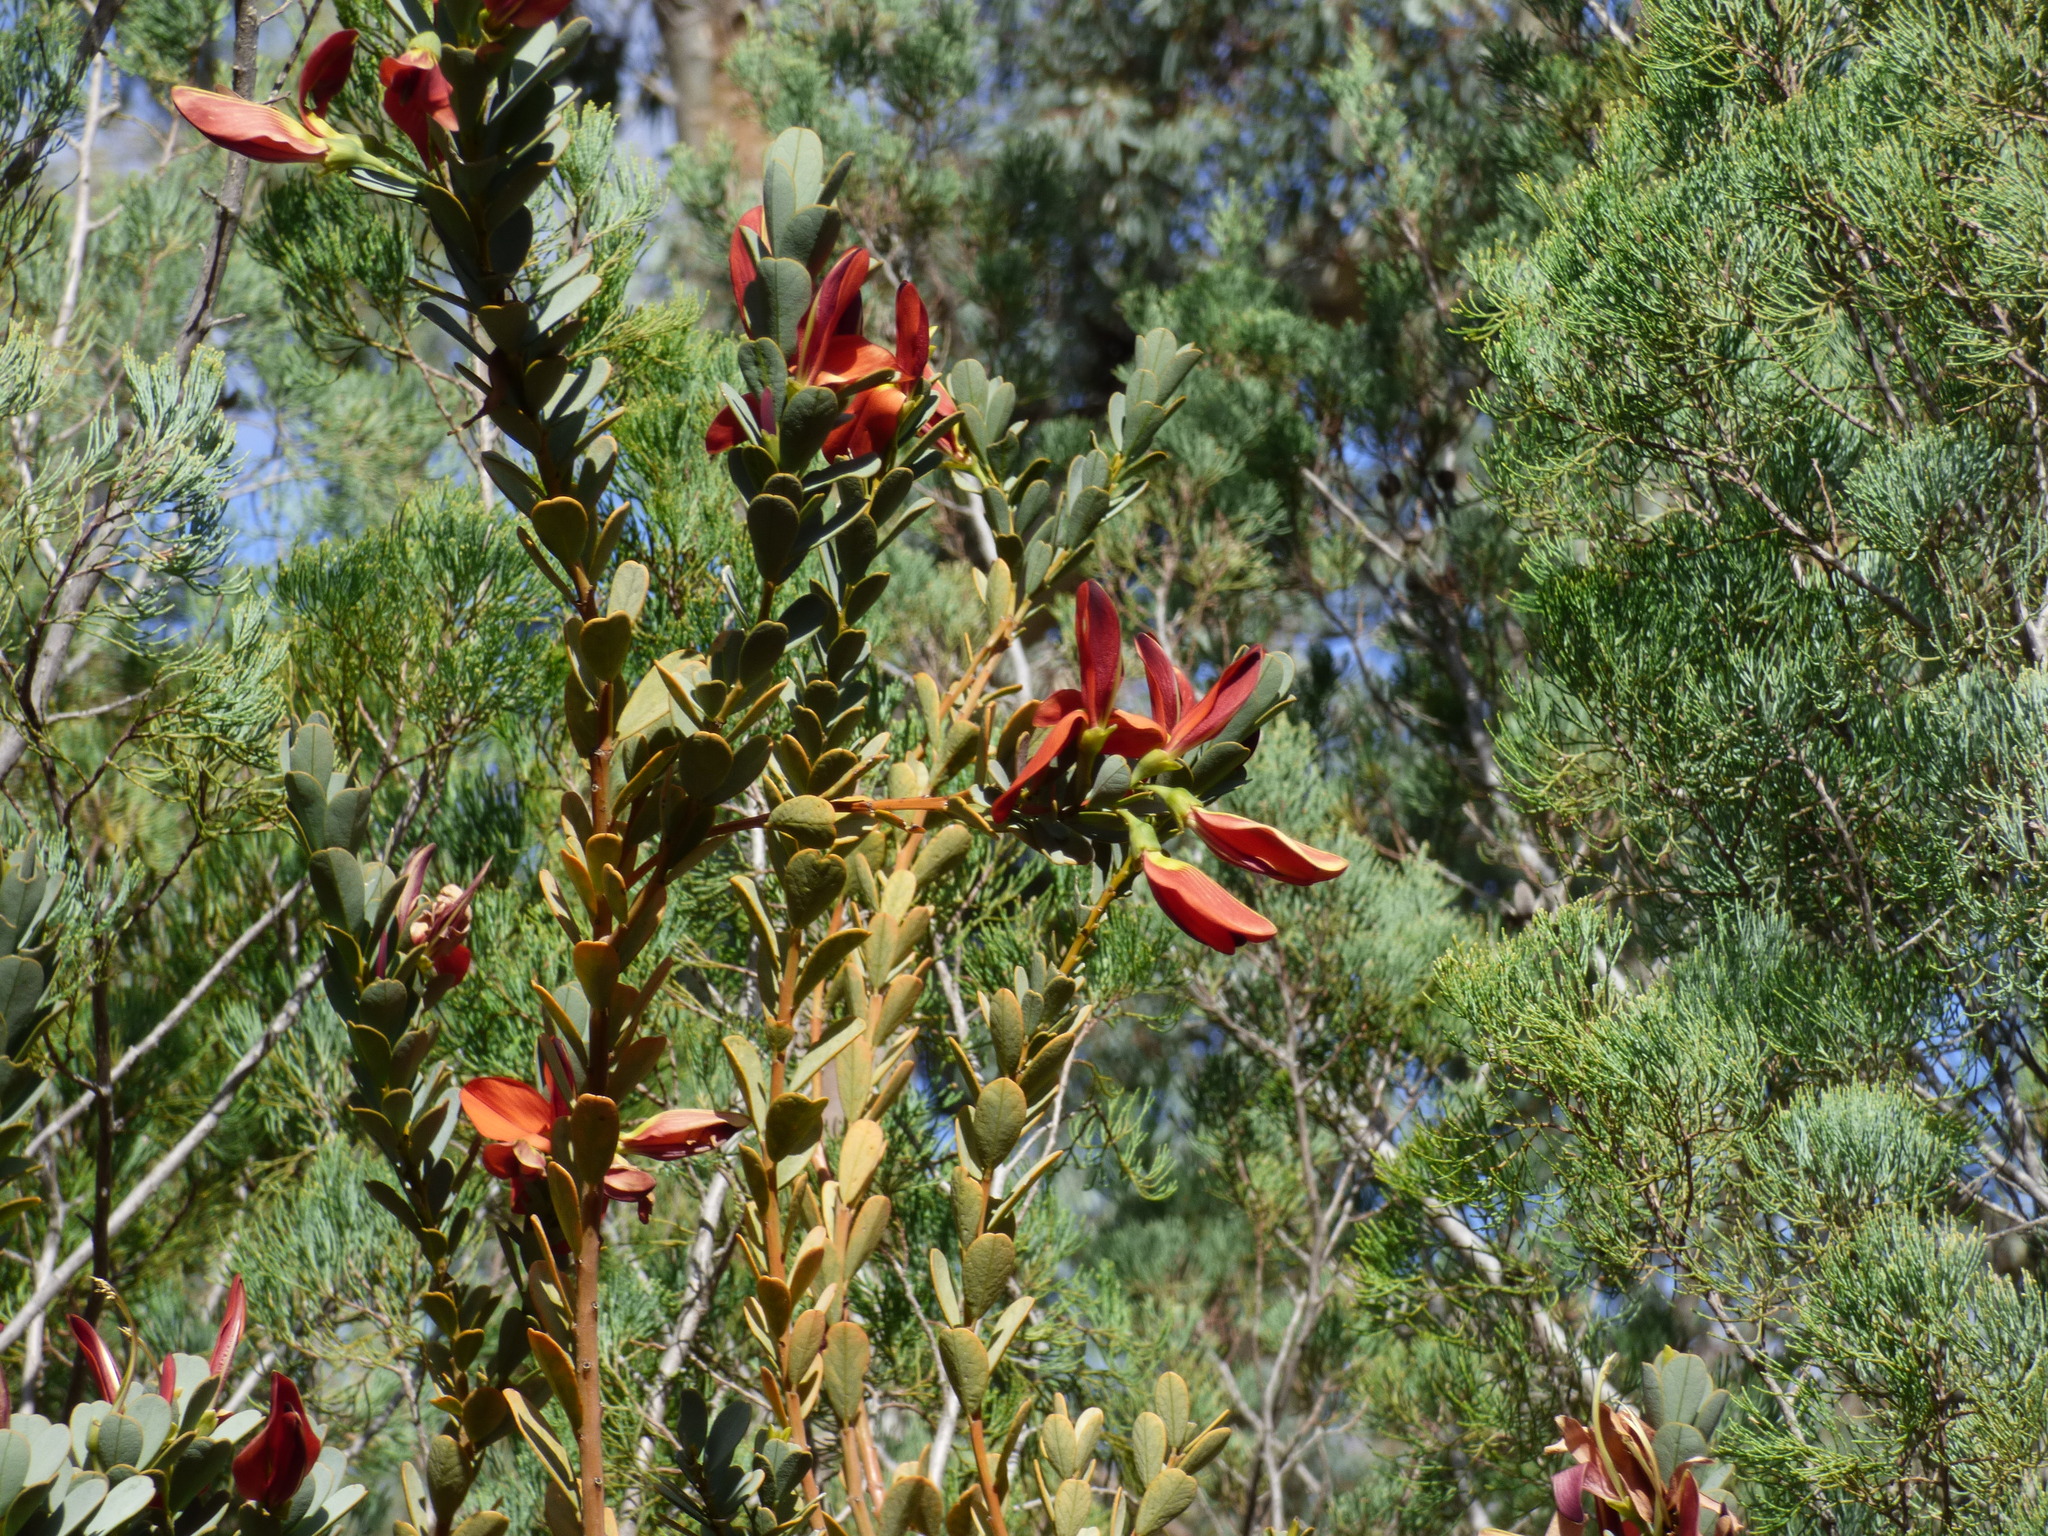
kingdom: Plantae
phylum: Tracheophyta
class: Magnoliopsida
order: Fabales
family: Fabaceae
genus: Templetonia
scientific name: Templetonia retusa
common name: Cockies'-tongue
